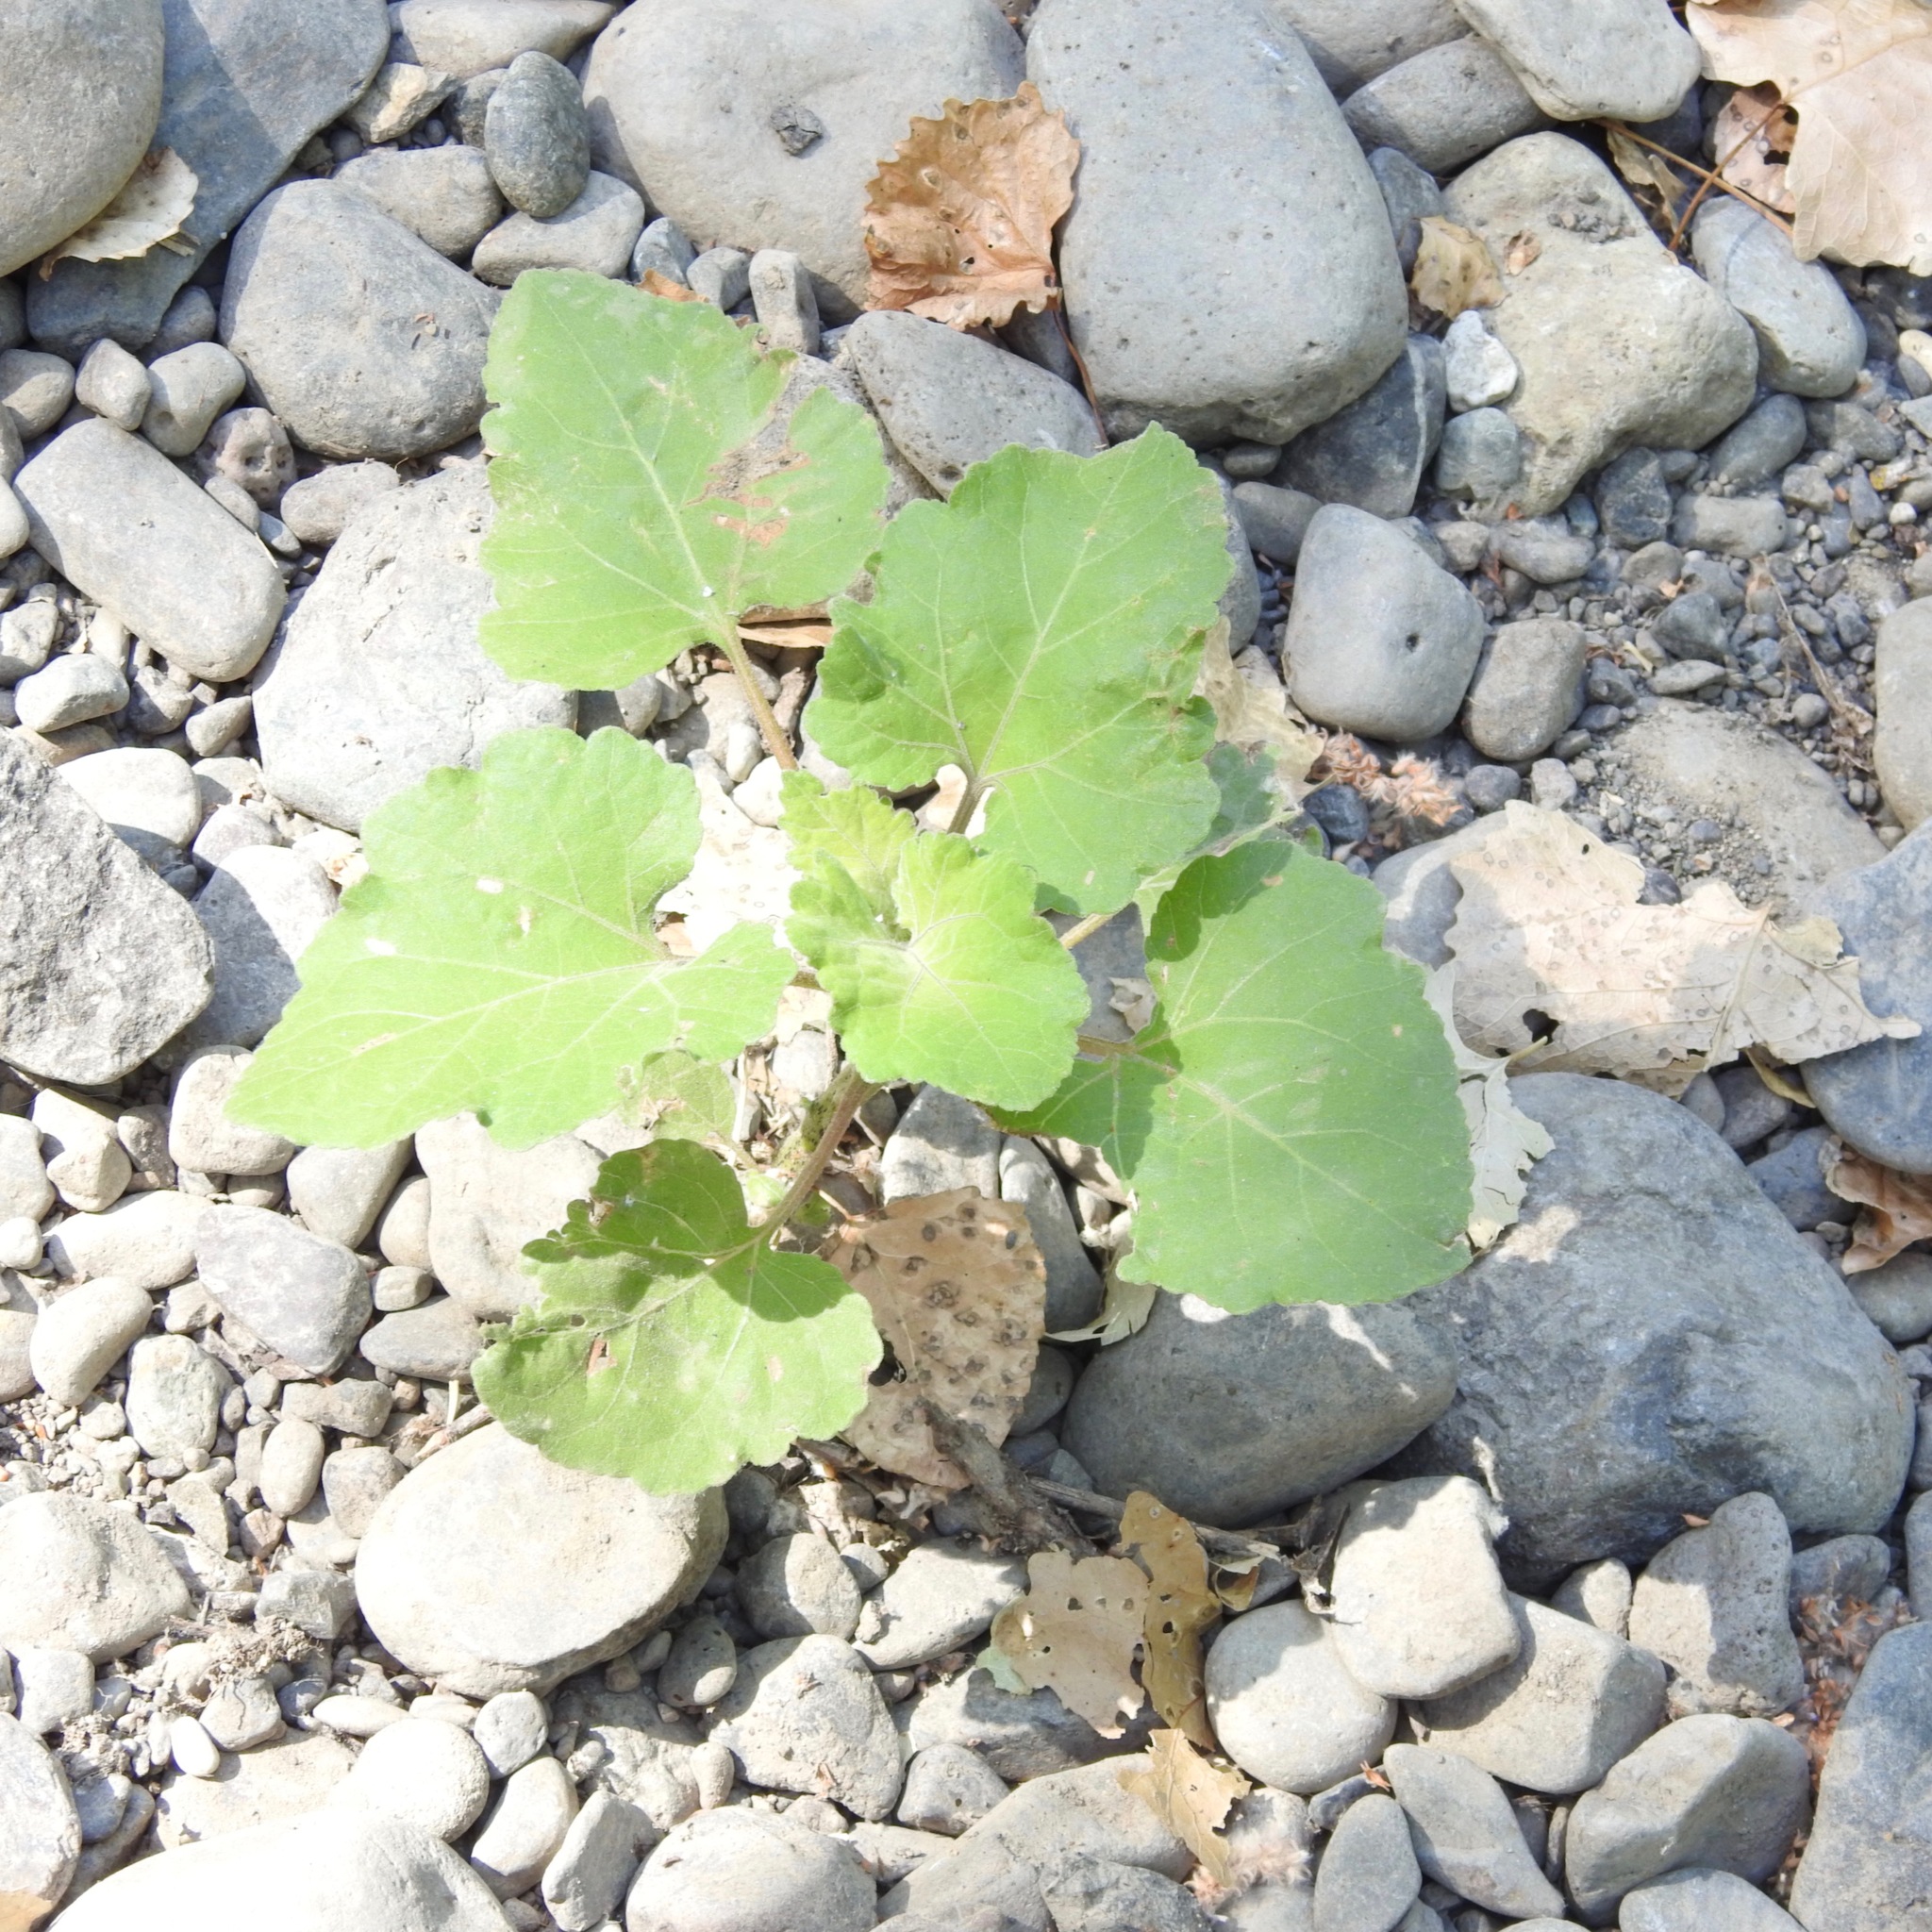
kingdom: Plantae
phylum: Tracheophyta
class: Magnoliopsida
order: Asterales
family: Asteraceae
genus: Xanthium
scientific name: Xanthium strumarium
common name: Rough cocklebur
